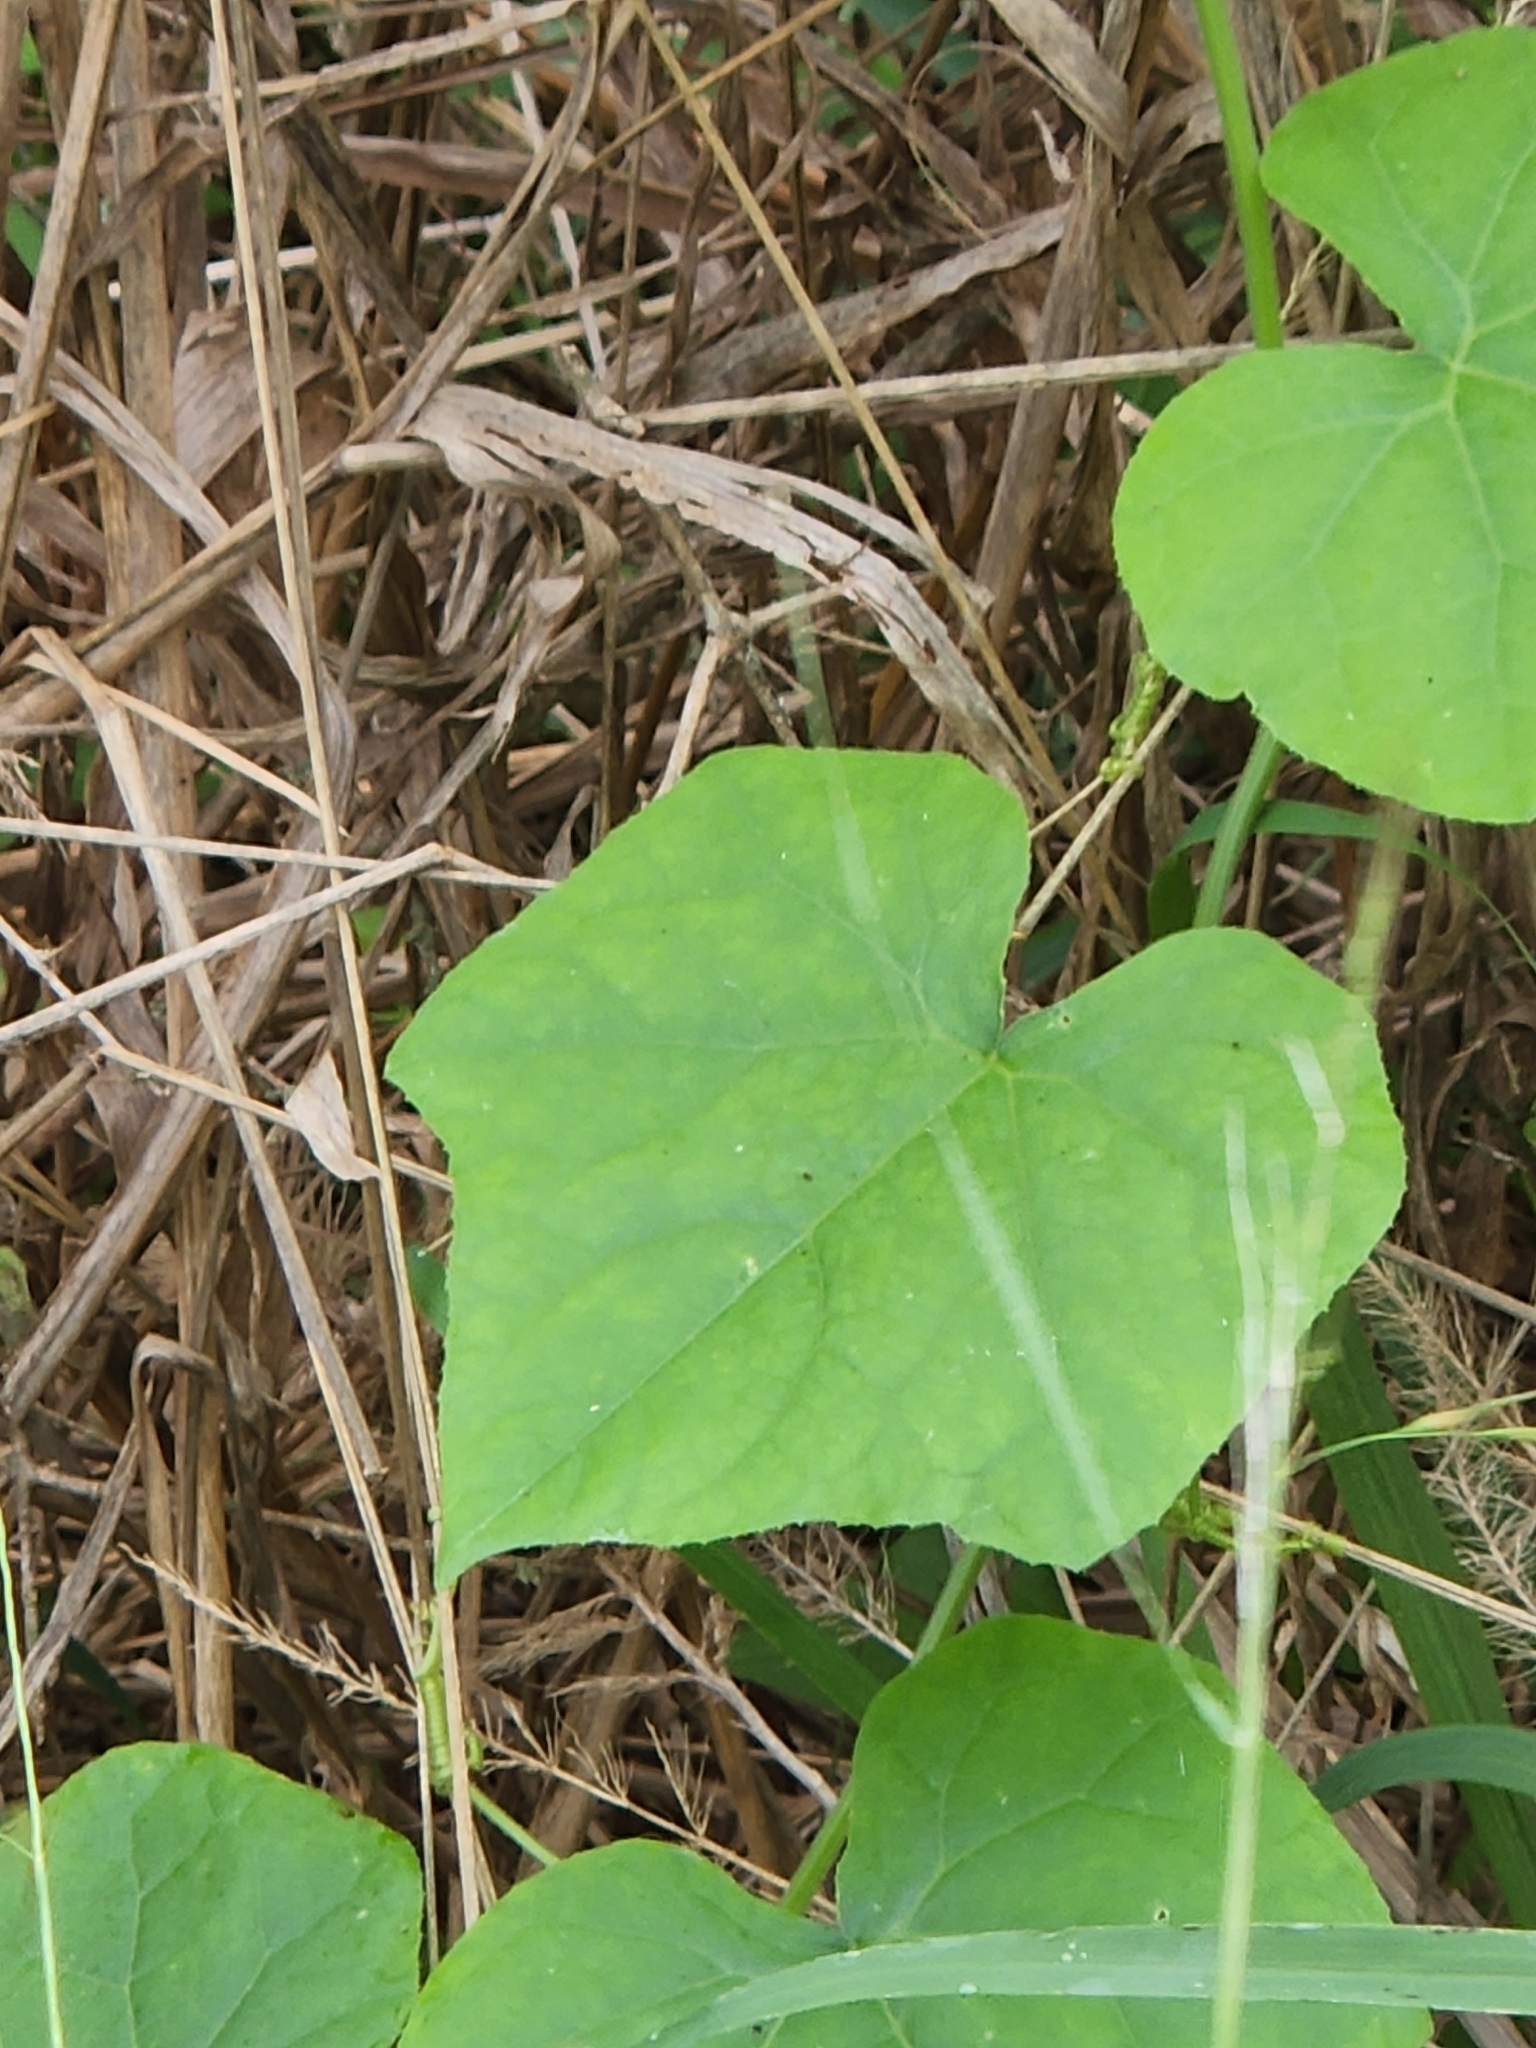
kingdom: Plantae
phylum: Tracheophyta
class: Magnoliopsida
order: Cucurbitales
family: Cucurbitaceae
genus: Sicyos
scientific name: Sicyos angulatus
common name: Angled burr cucumber
